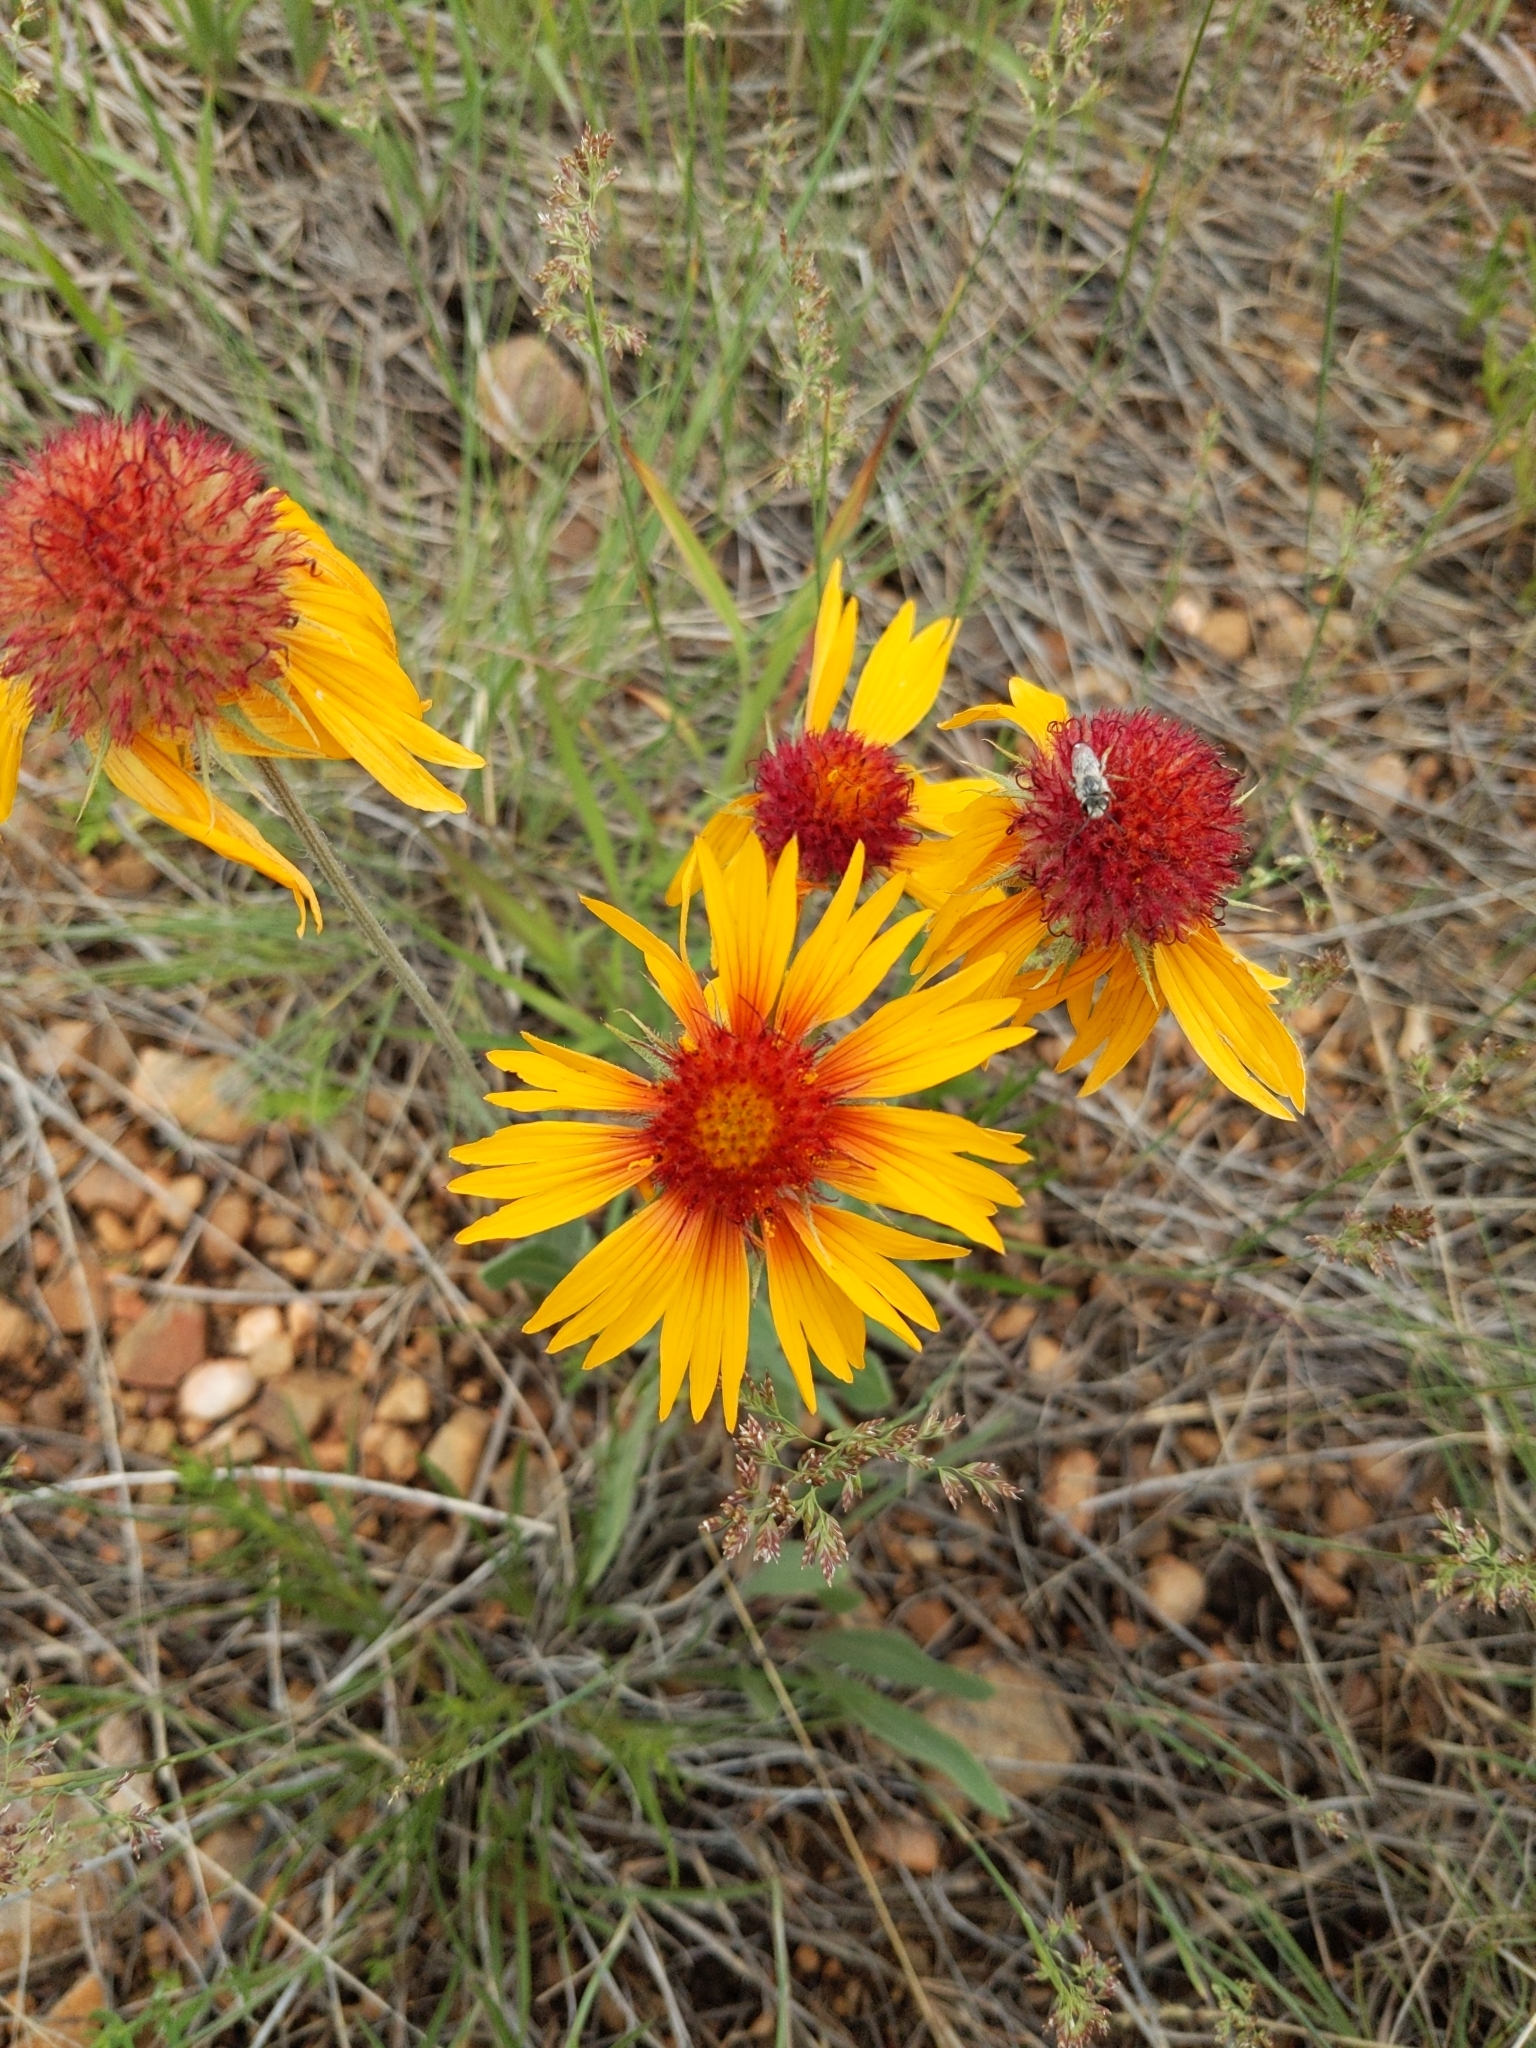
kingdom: Plantae
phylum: Tracheophyta
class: Magnoliopsida
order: Asterales
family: Asteraceae
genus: Gaillardia
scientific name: Gaillardia aristata
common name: Blanket-flower
